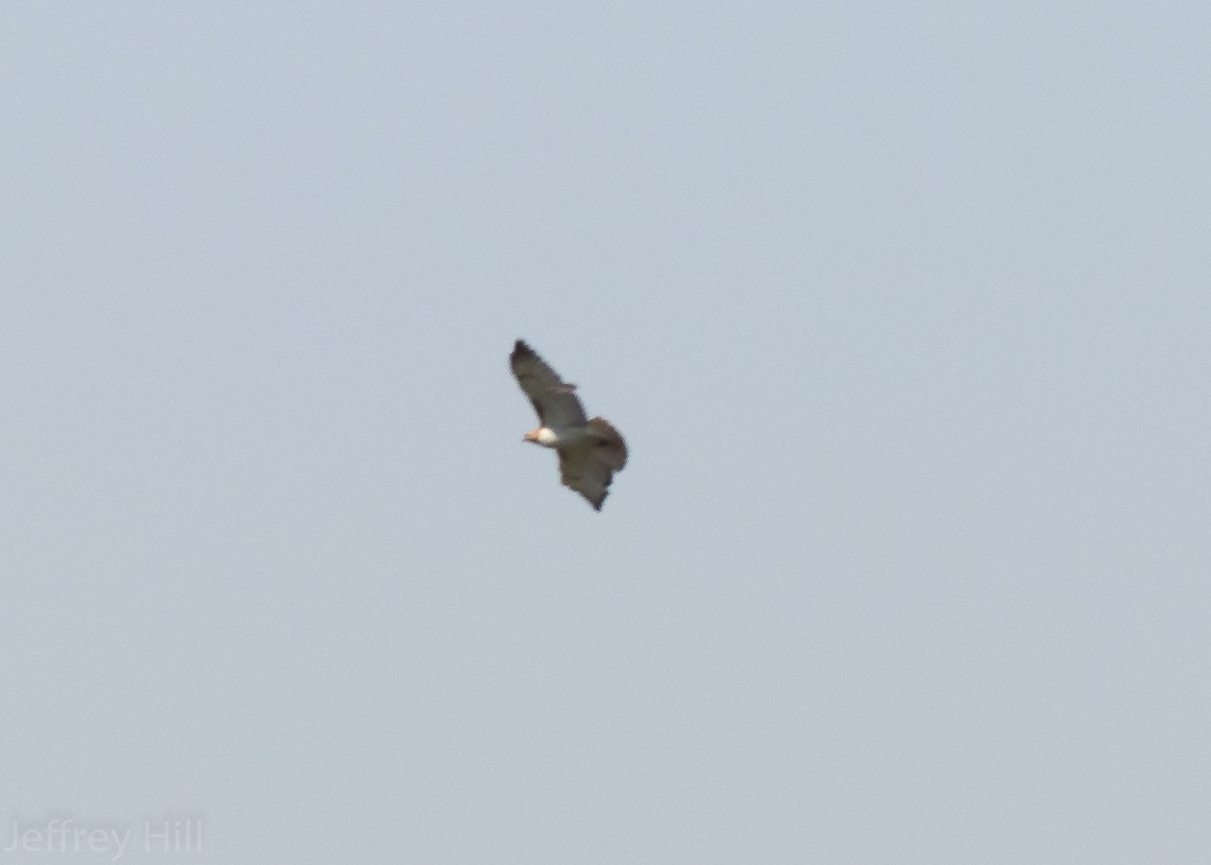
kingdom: Animalia
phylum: Chordata
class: Aves
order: Accipitriformes
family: Accipitridae
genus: Buteo
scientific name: Buteo jamaicensis
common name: Red-tailed hawk
